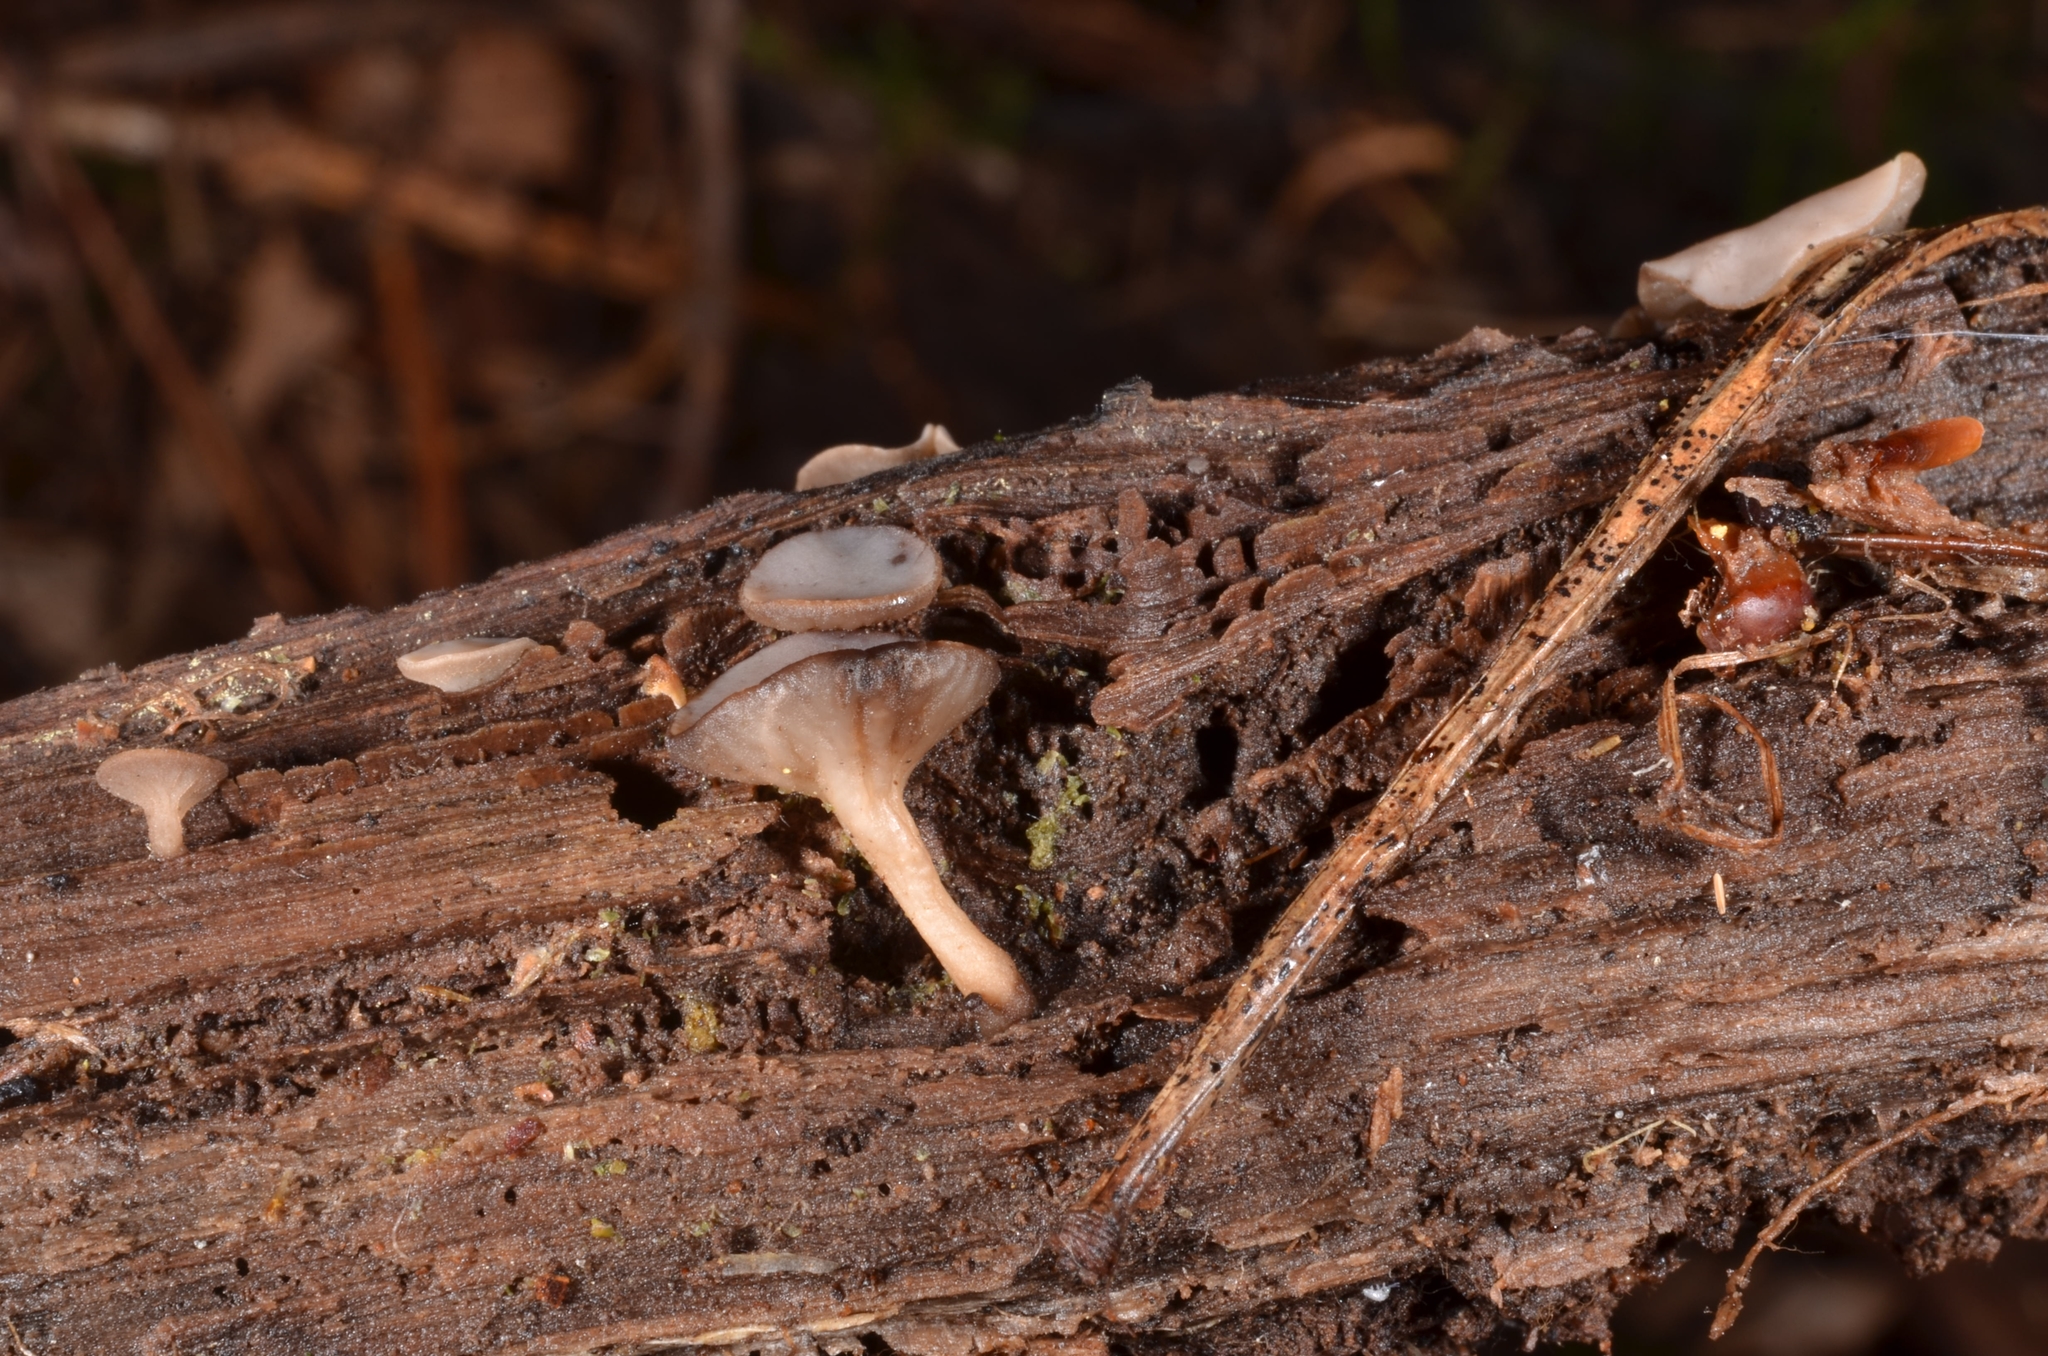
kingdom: Fungi
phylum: Ascomycota
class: Leotiomycetes
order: Helotiales
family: Helotiaceae
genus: Tatraea
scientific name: Tatraea macrospora
